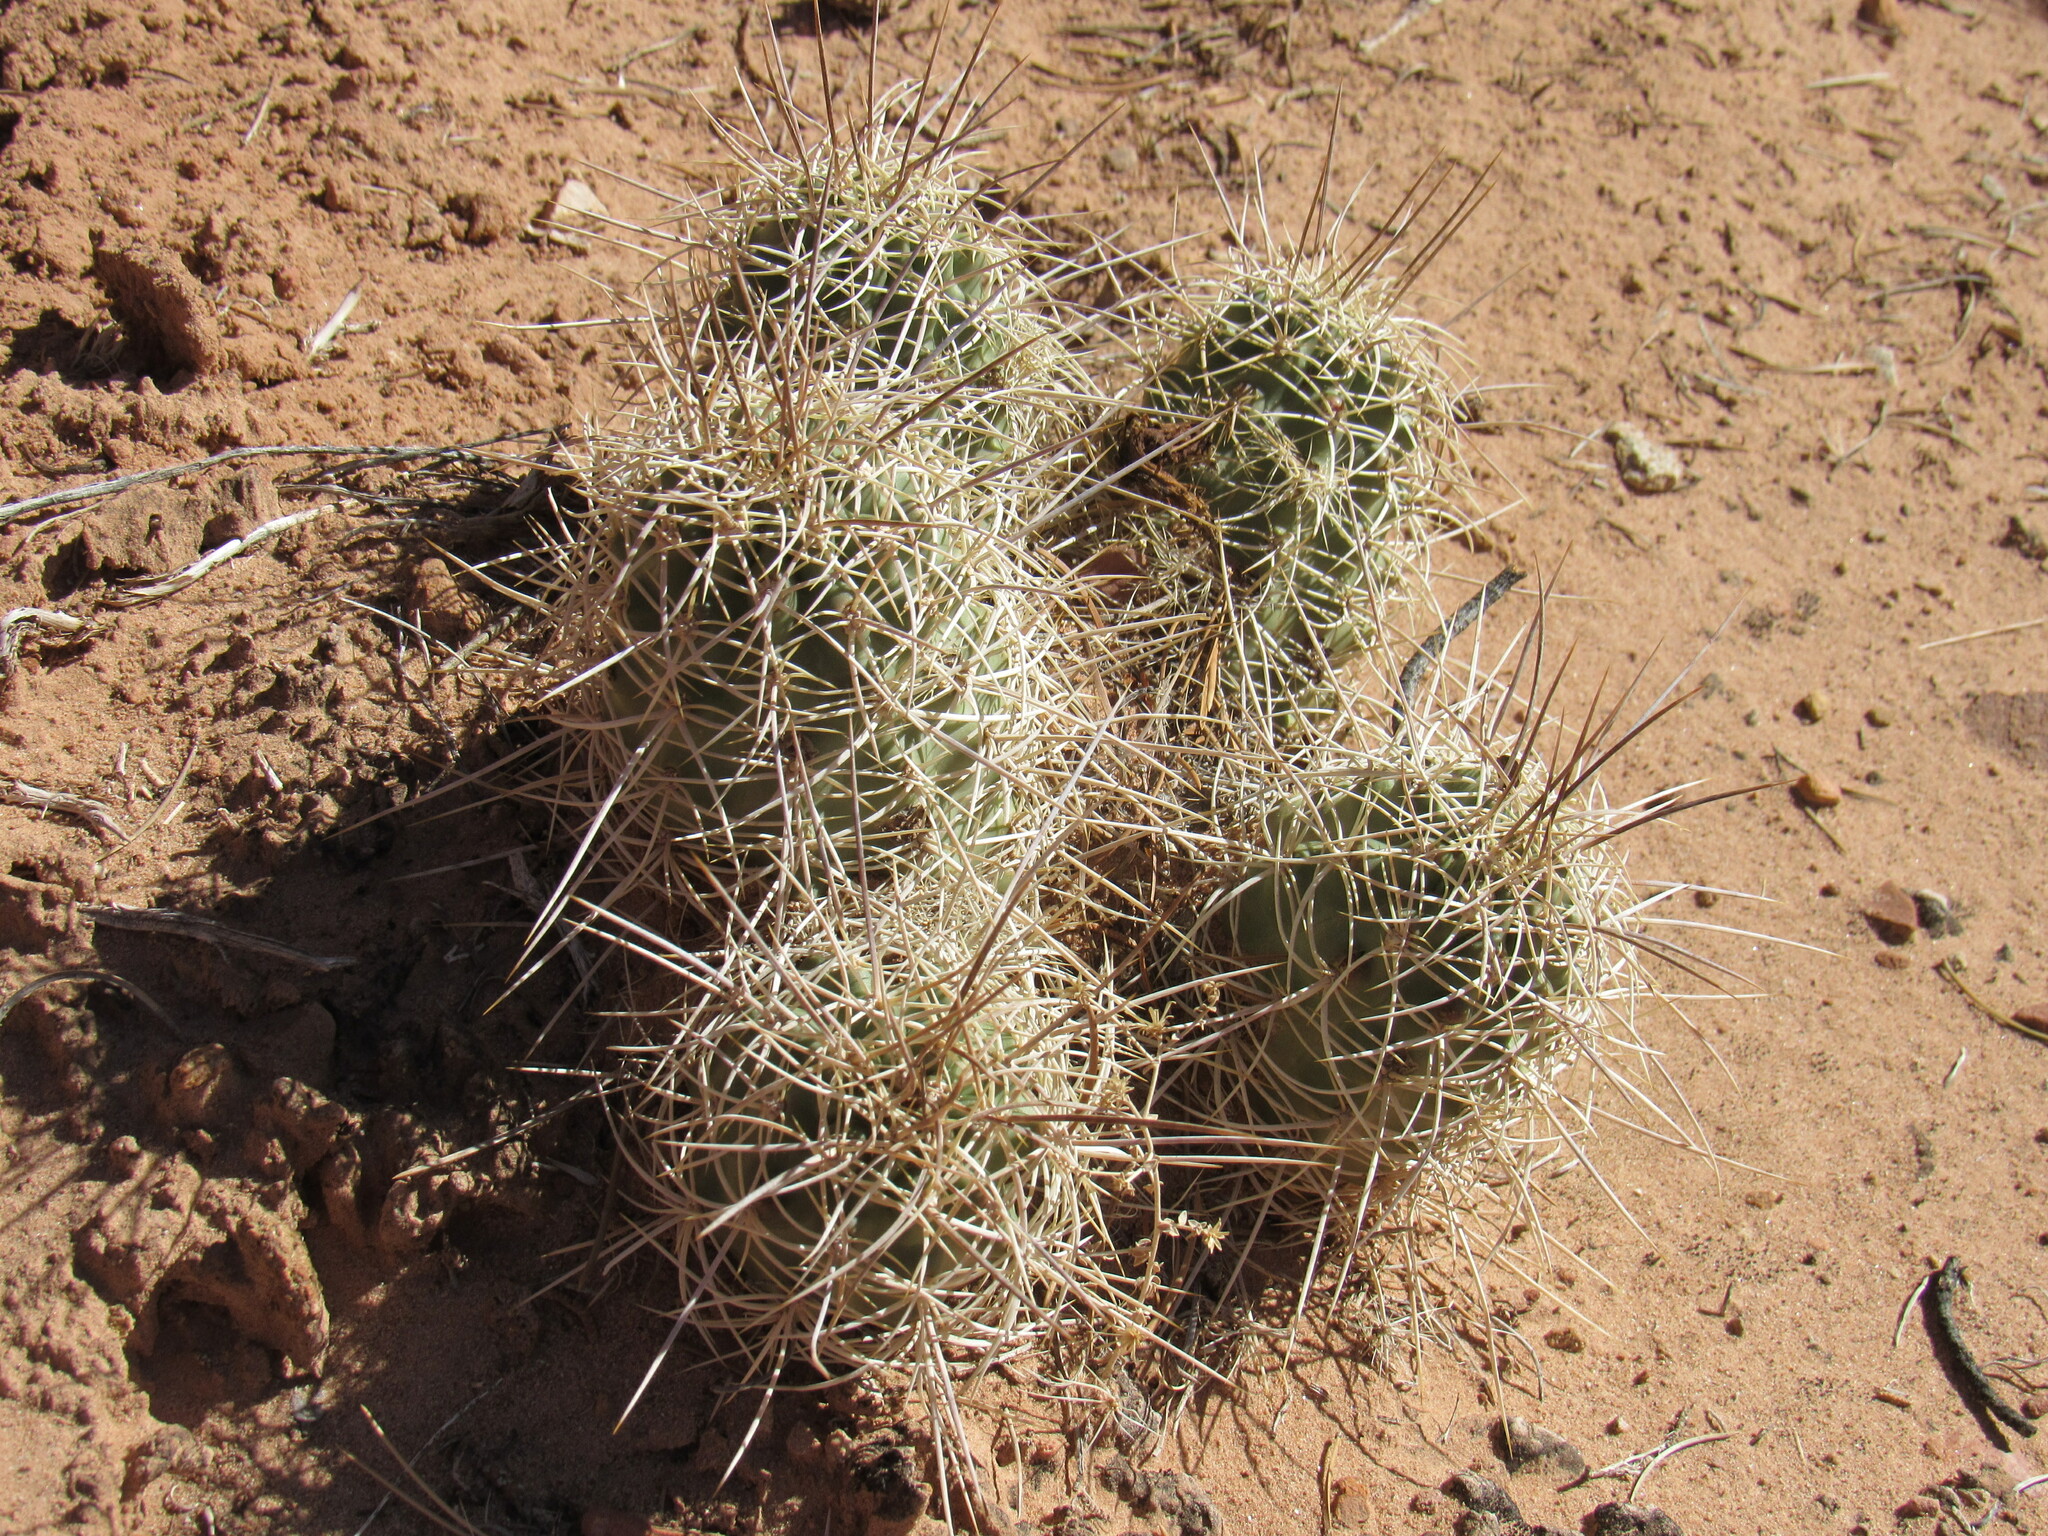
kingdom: Plantae
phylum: Tracheophyta
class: Magnoliopsida
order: Caryophyllales
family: Cactaceae
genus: Echinocereus
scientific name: Echinocereus triglochidiatus
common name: Claretcup hedgehog
